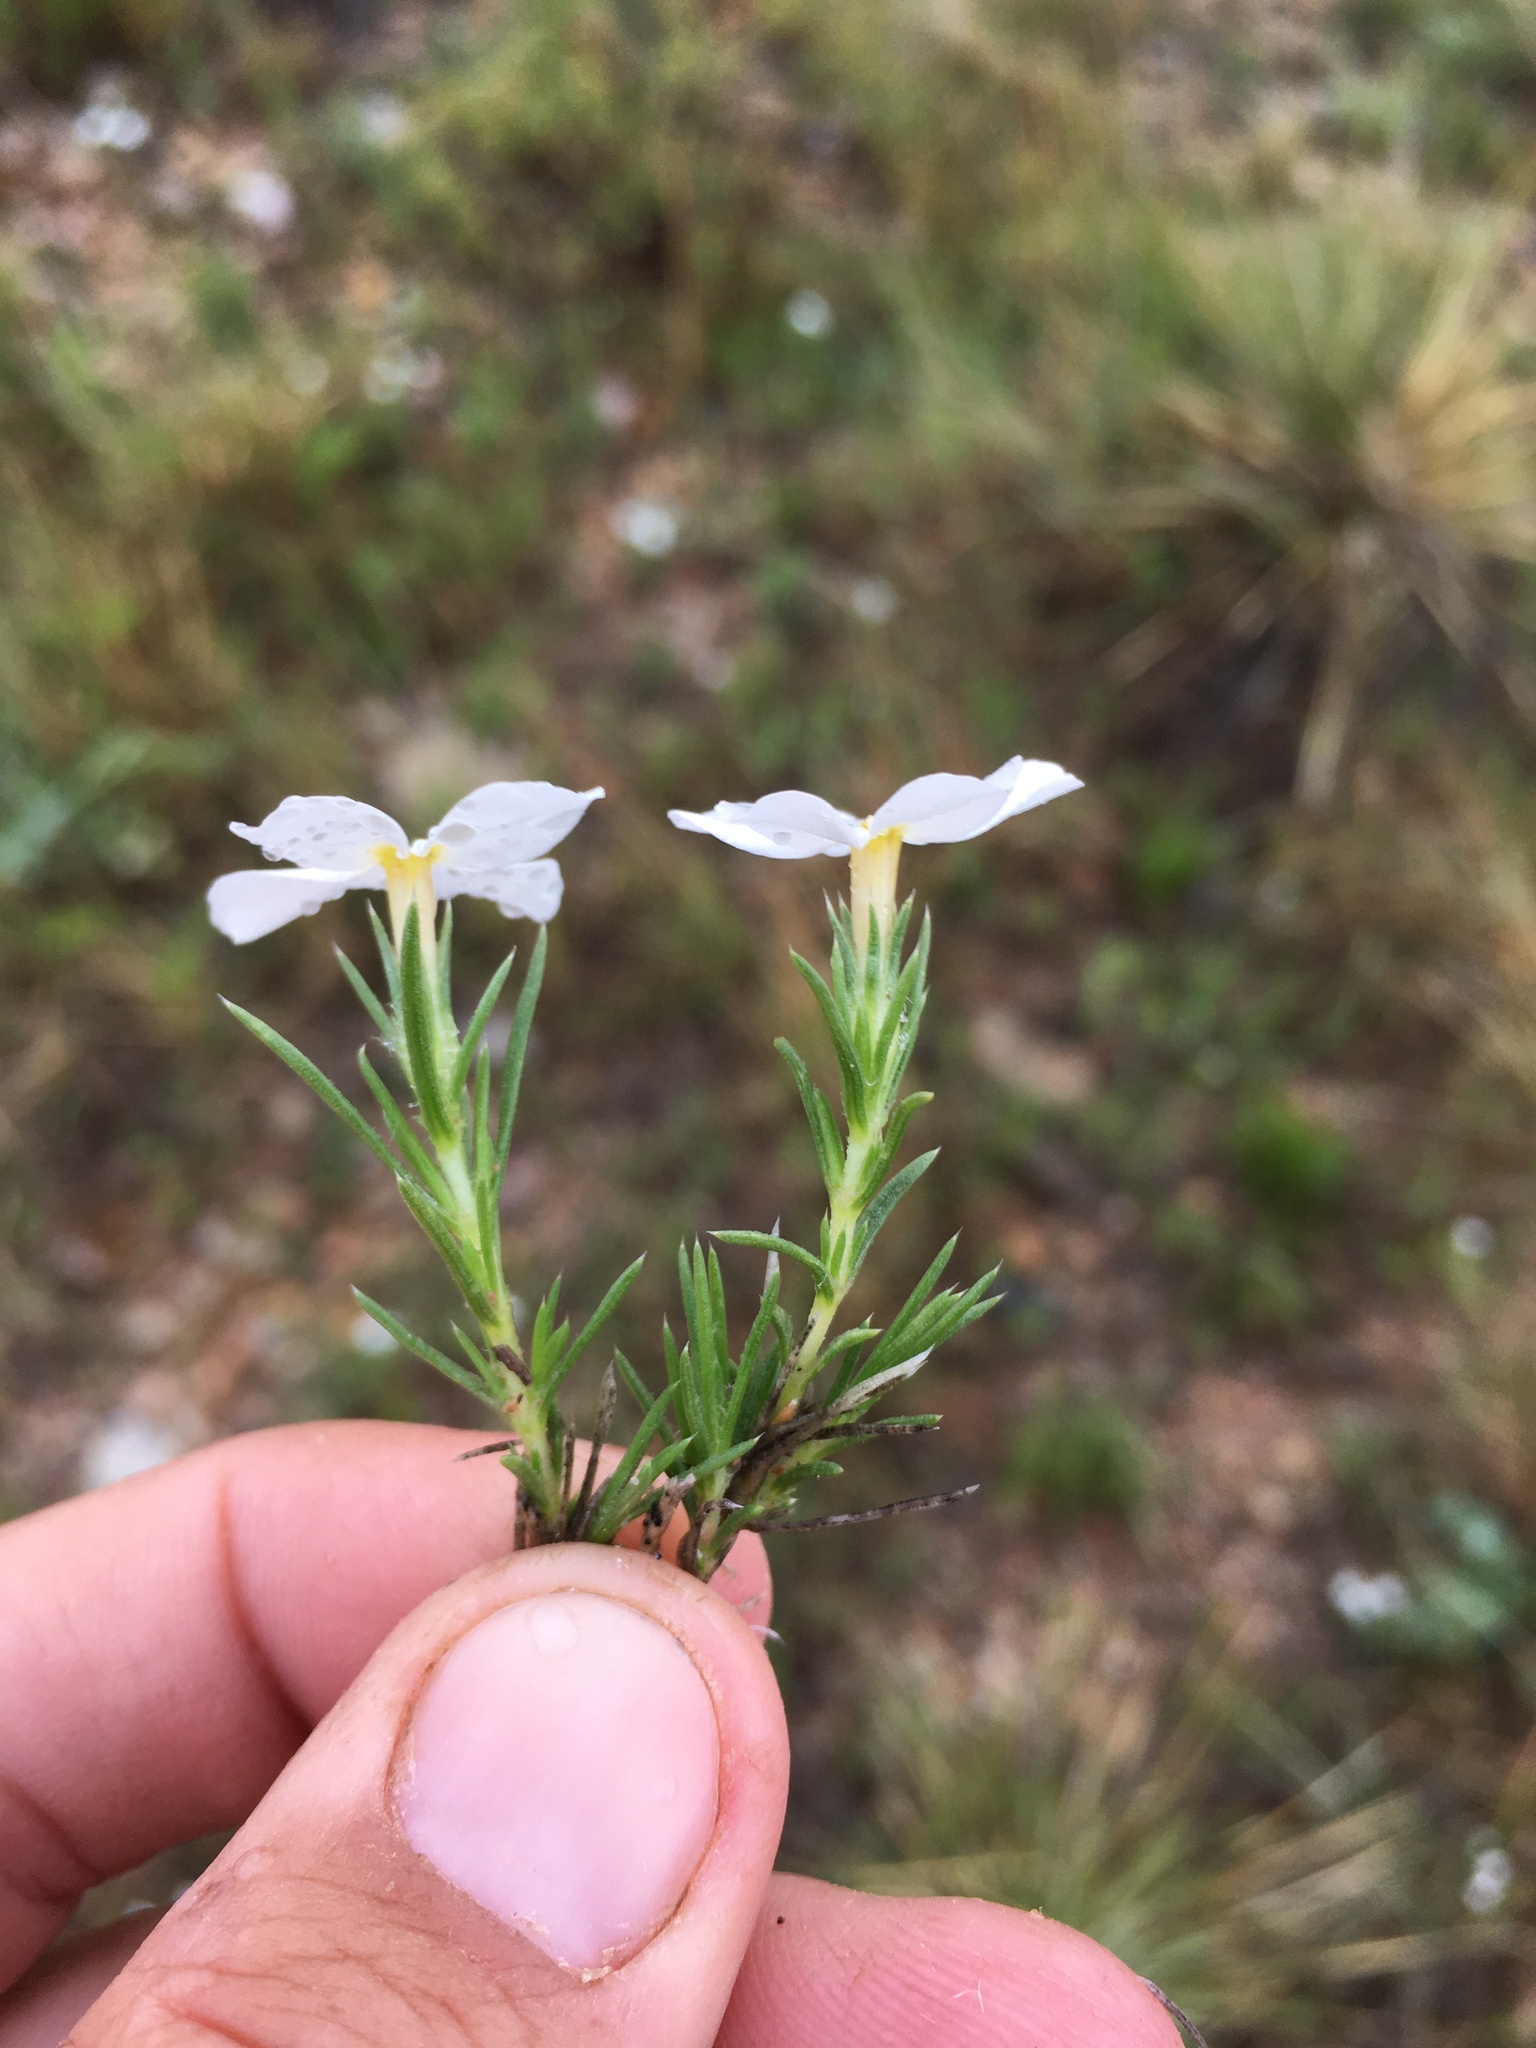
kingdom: Plantae
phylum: Tracheophyta
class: Magnoliopsida
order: Ericales
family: Polemoniaceae
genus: Phlox
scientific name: Phlox andicola
